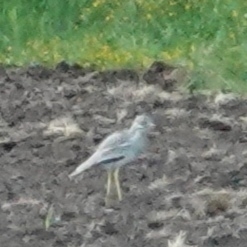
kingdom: Animalia
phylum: Chordata
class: Aves
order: Charadriiformes
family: Burhinidae
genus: Burhinus
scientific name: Burhinus oedicnemus
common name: Eurasian stone-curlew
